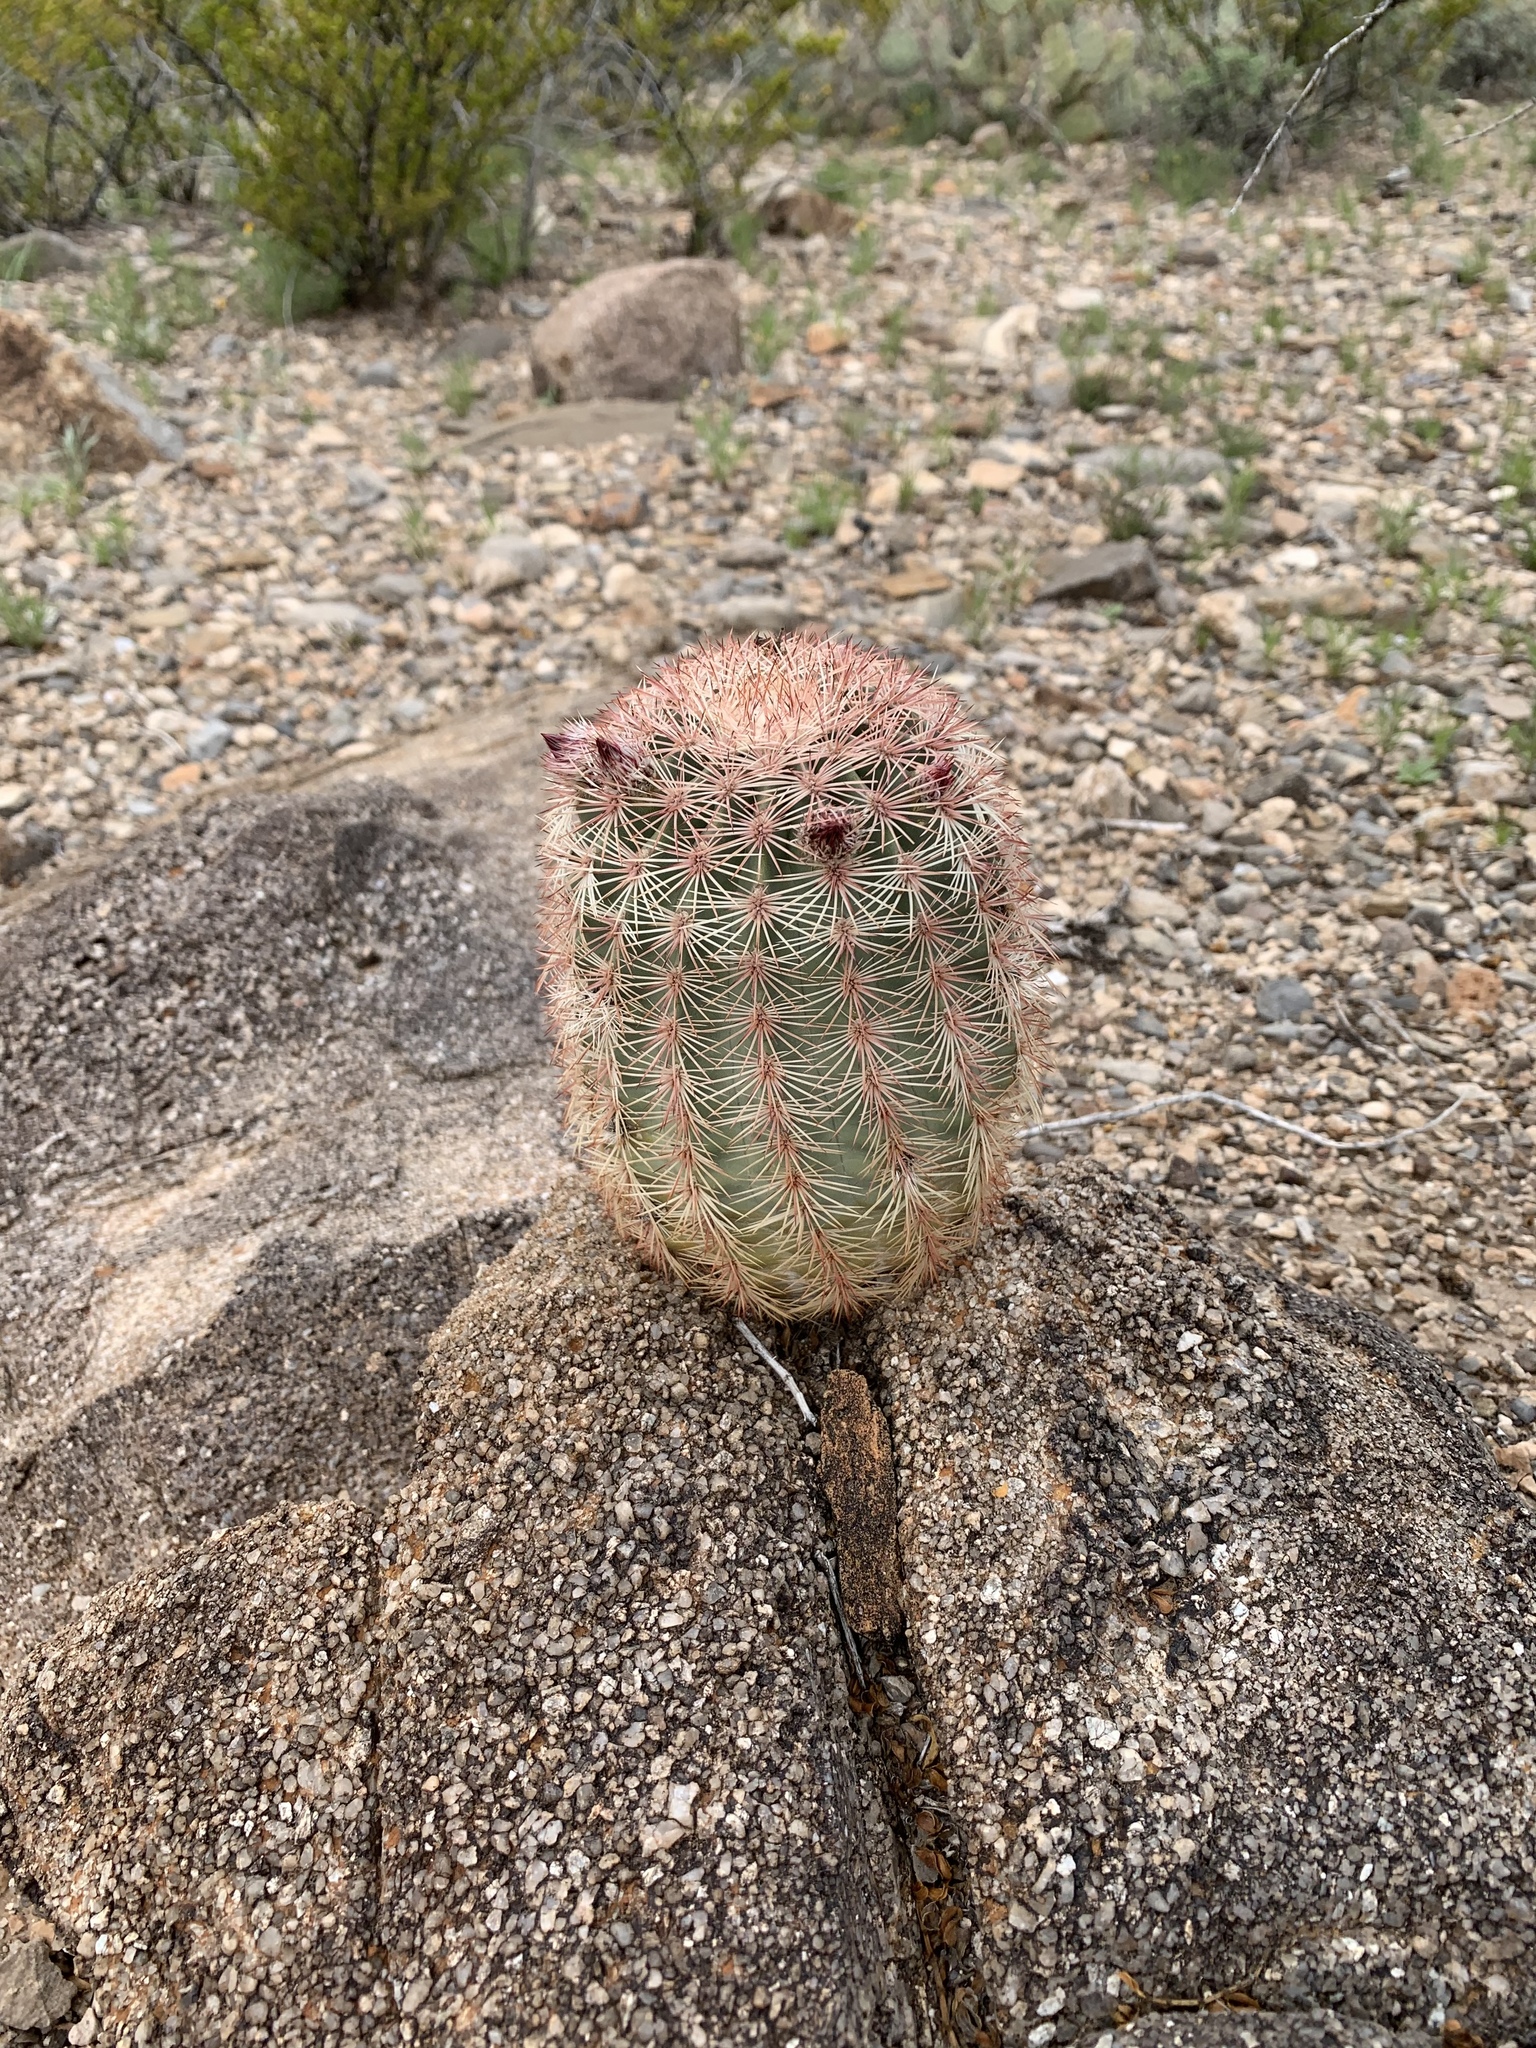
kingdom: Plantae
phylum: Tracheophyta
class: Magnoliopsida
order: Caryophyllales
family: Cactaceae
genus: Echinocereus
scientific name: Echinocereus dasyacanthus
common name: Spiny hedgehog cactus
